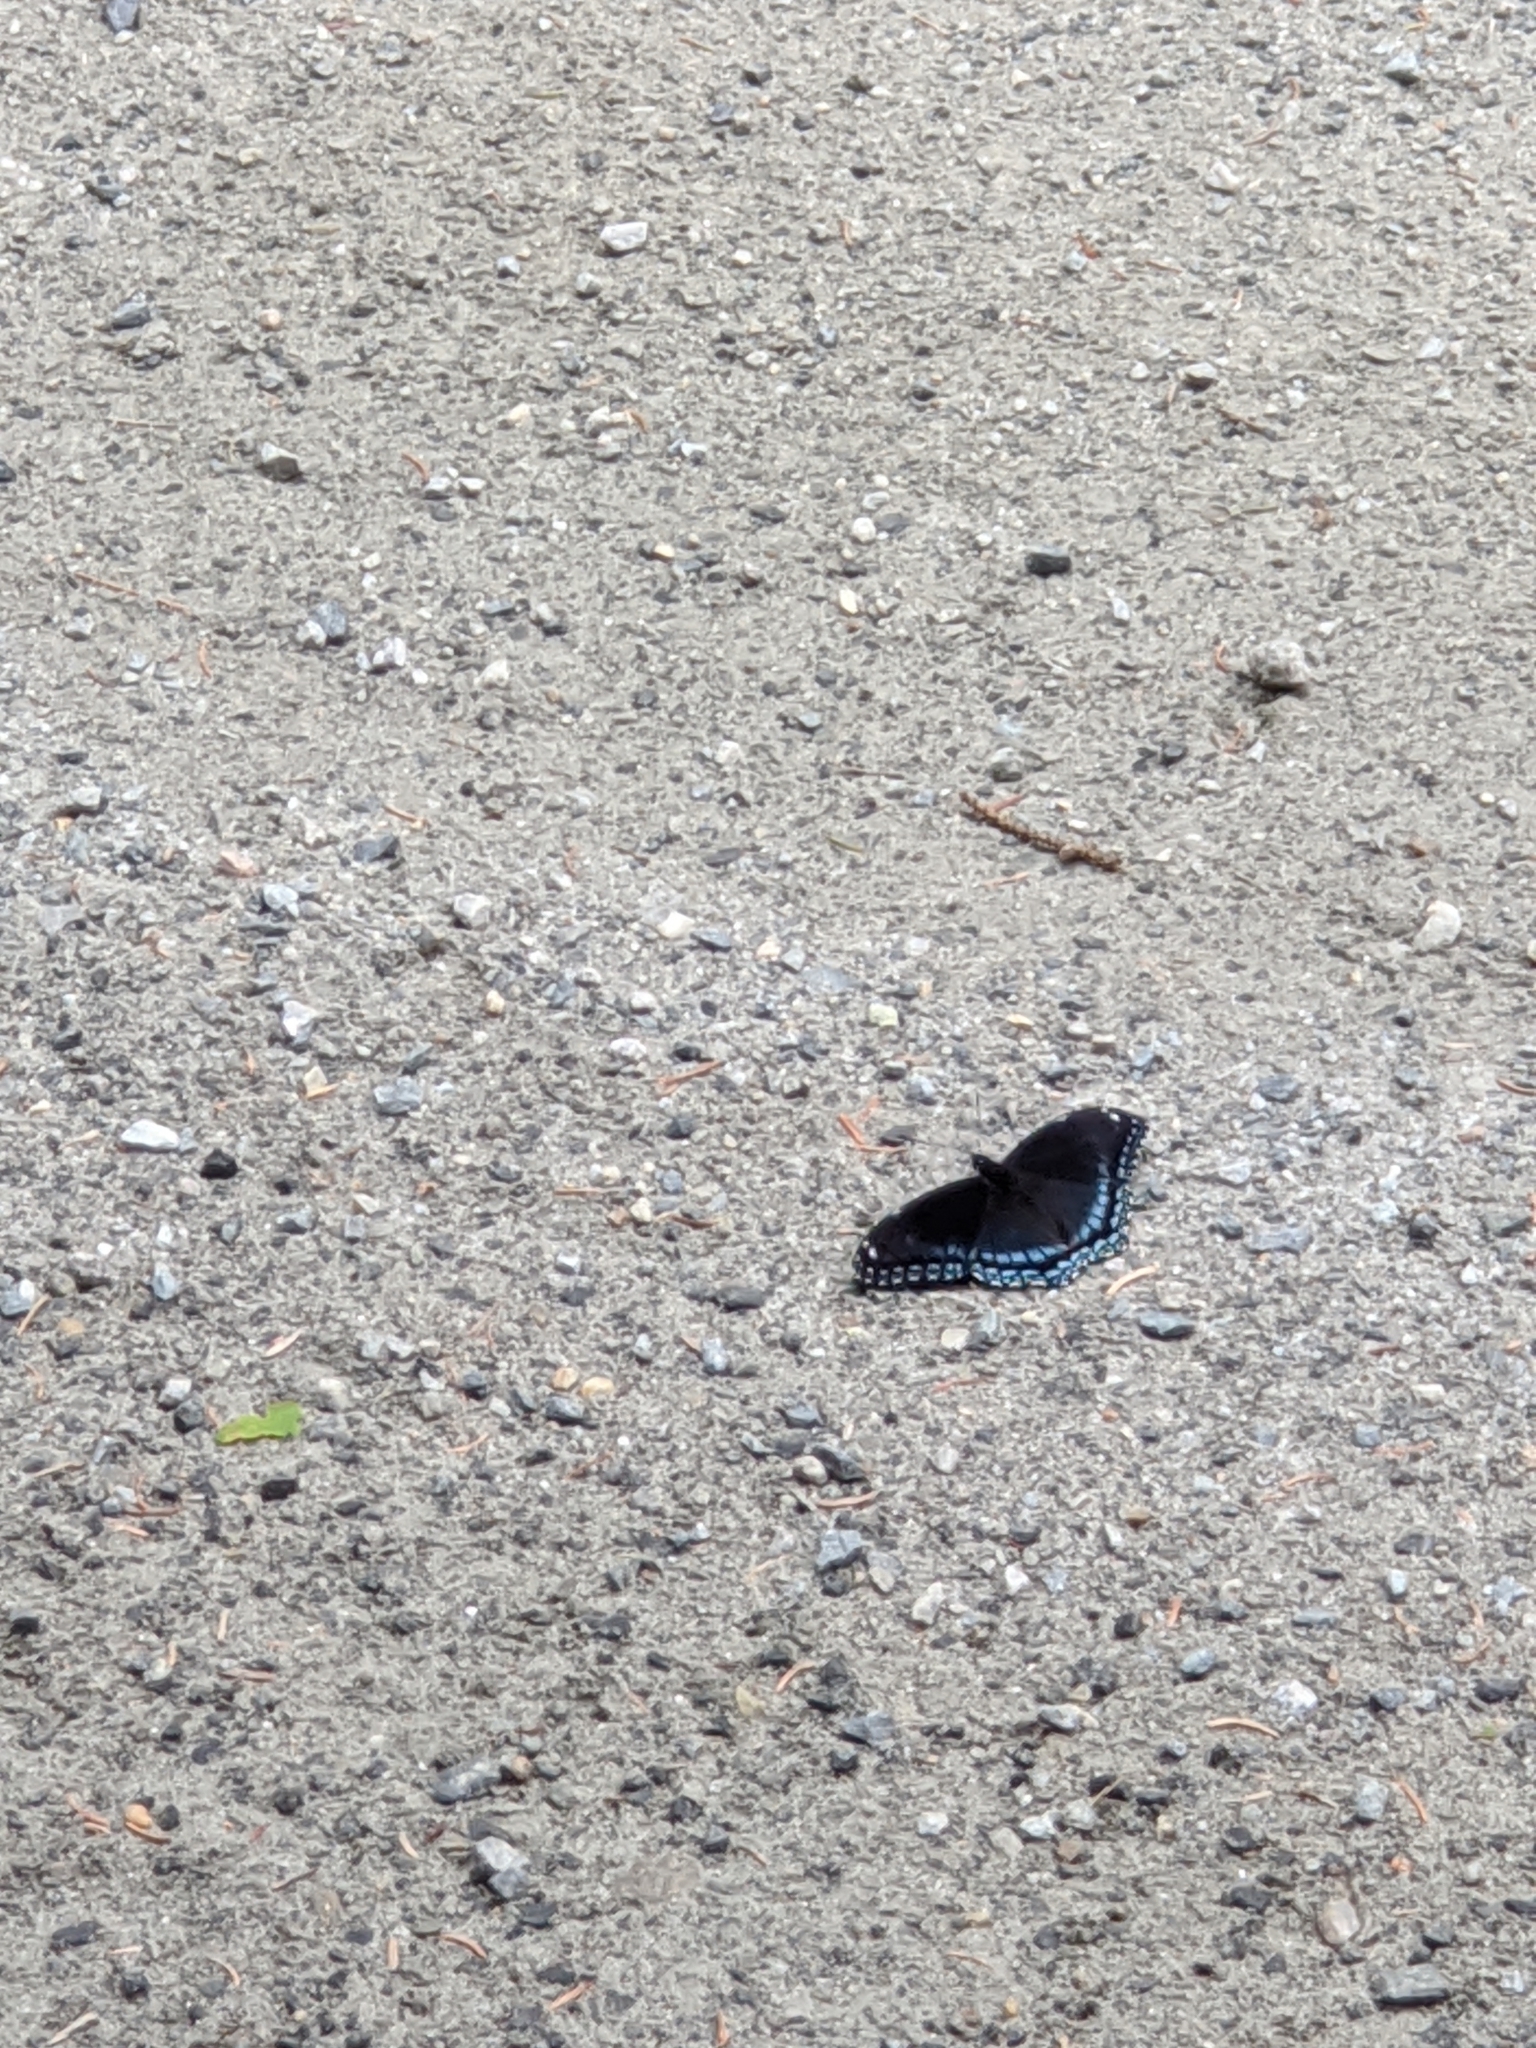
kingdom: Animalia
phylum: Arthropoda
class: Insecta
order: Lepidoptera
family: Nymphalidae
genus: Limenitis
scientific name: Limenitis arthemis
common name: Red-spotted admiral
